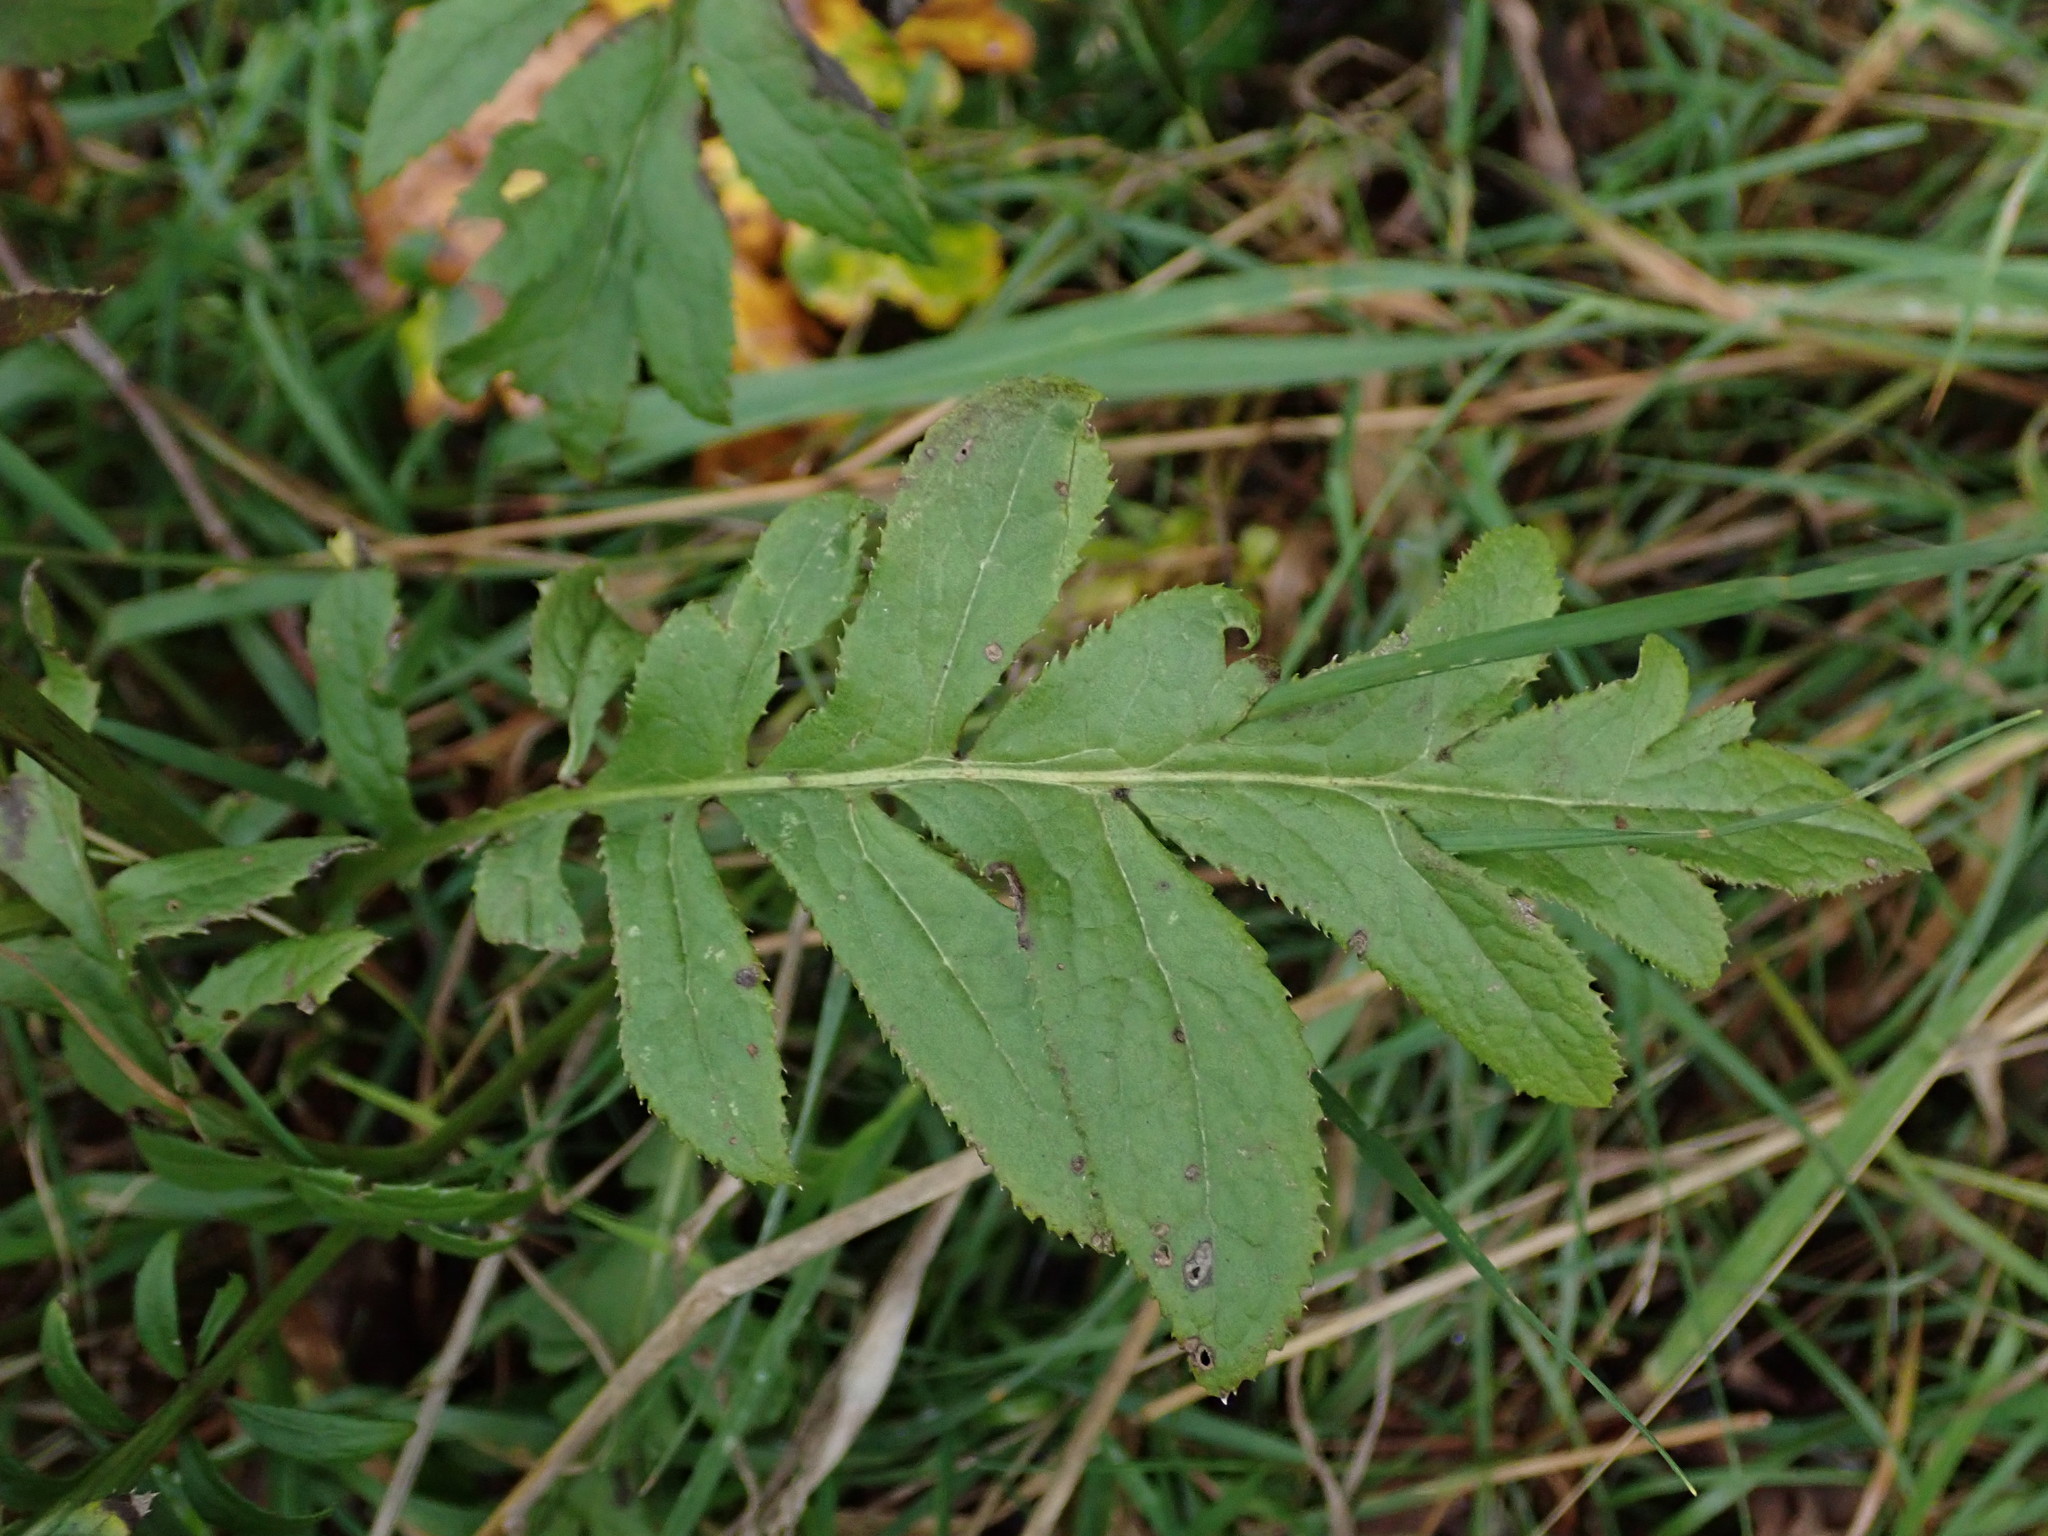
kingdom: Plantae
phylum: Tracheophyta
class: Magnoliopsida
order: Asterales
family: Asteraceae
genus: Serratula
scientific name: Serratula tinctoria
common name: Saw-wort
